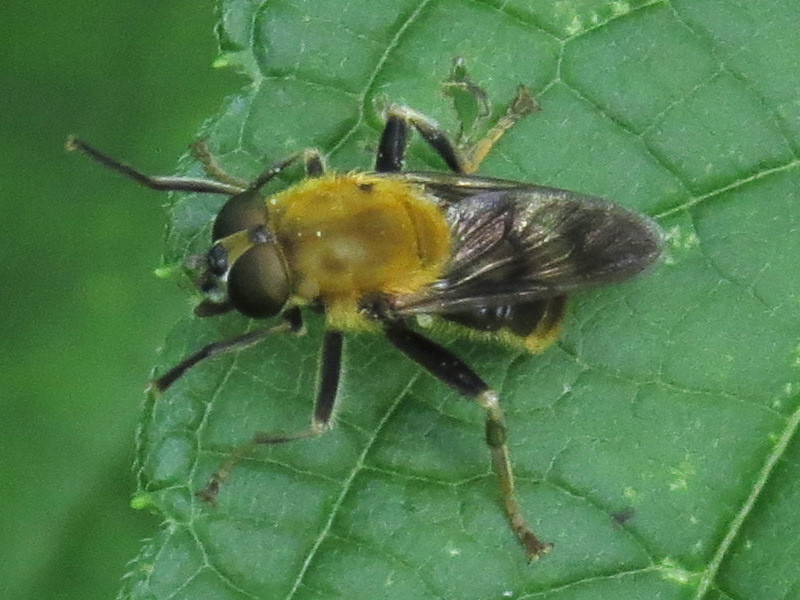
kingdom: Animalia
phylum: Arthropoda
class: Insecta
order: Diptera
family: Syrphidae
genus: Pterallastes
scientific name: Pterallastes thoracicus
